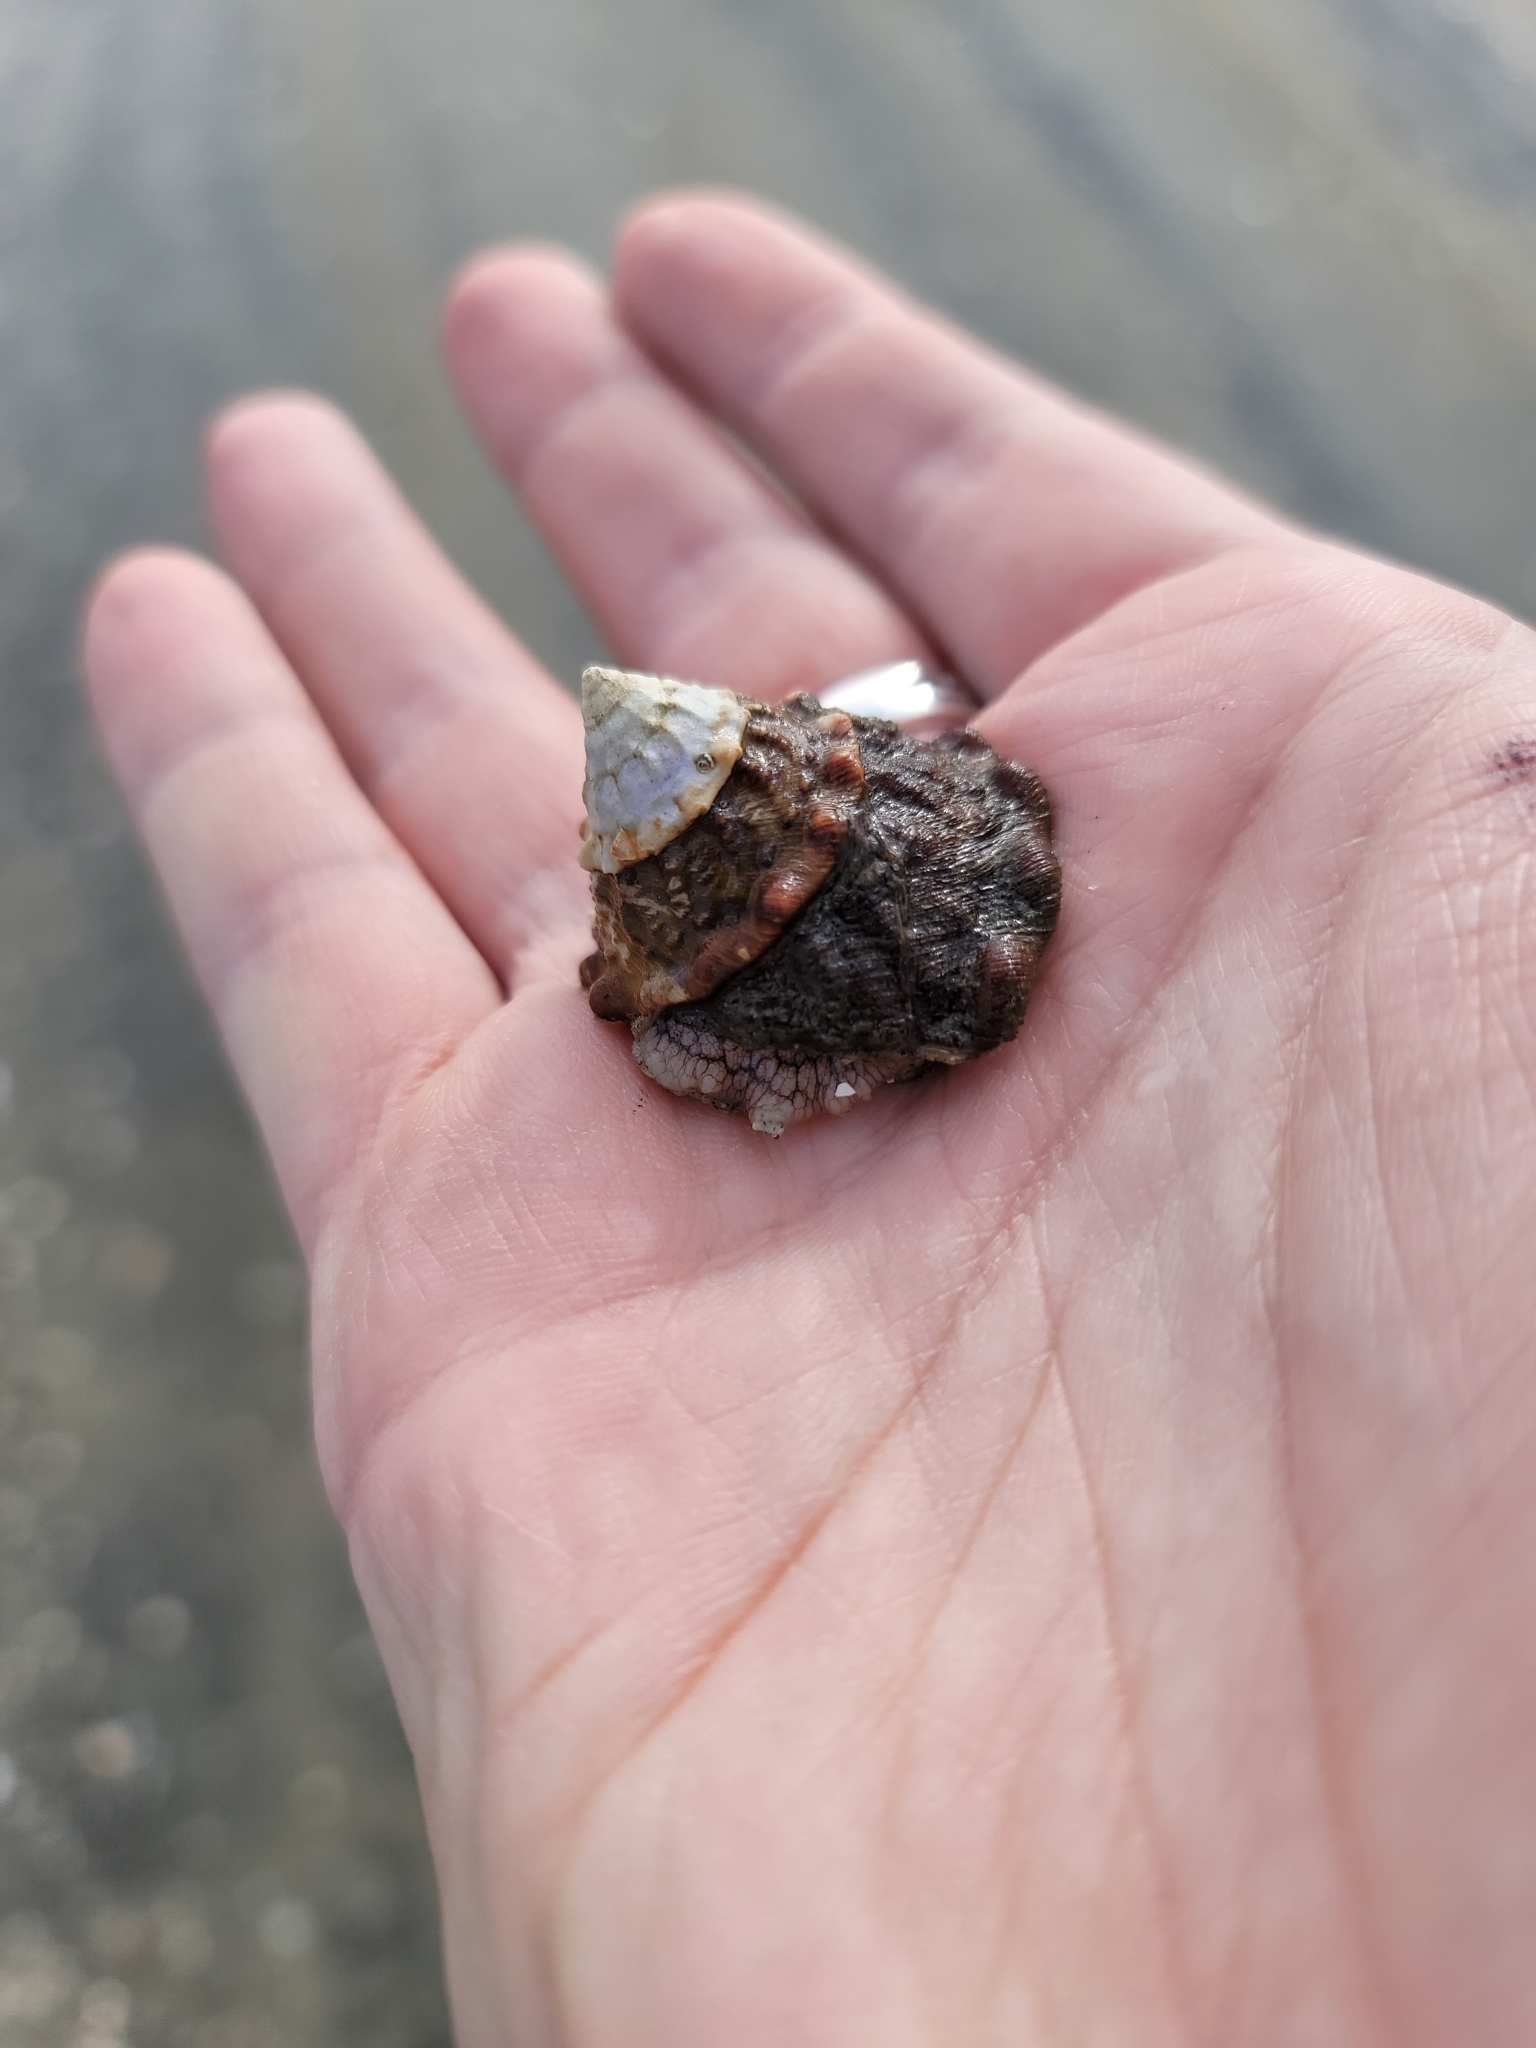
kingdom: Animalia
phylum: Mollusca
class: Gastropoda
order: Trochida
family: Turbinidae
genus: Megastraea
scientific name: Megastraea undosa
